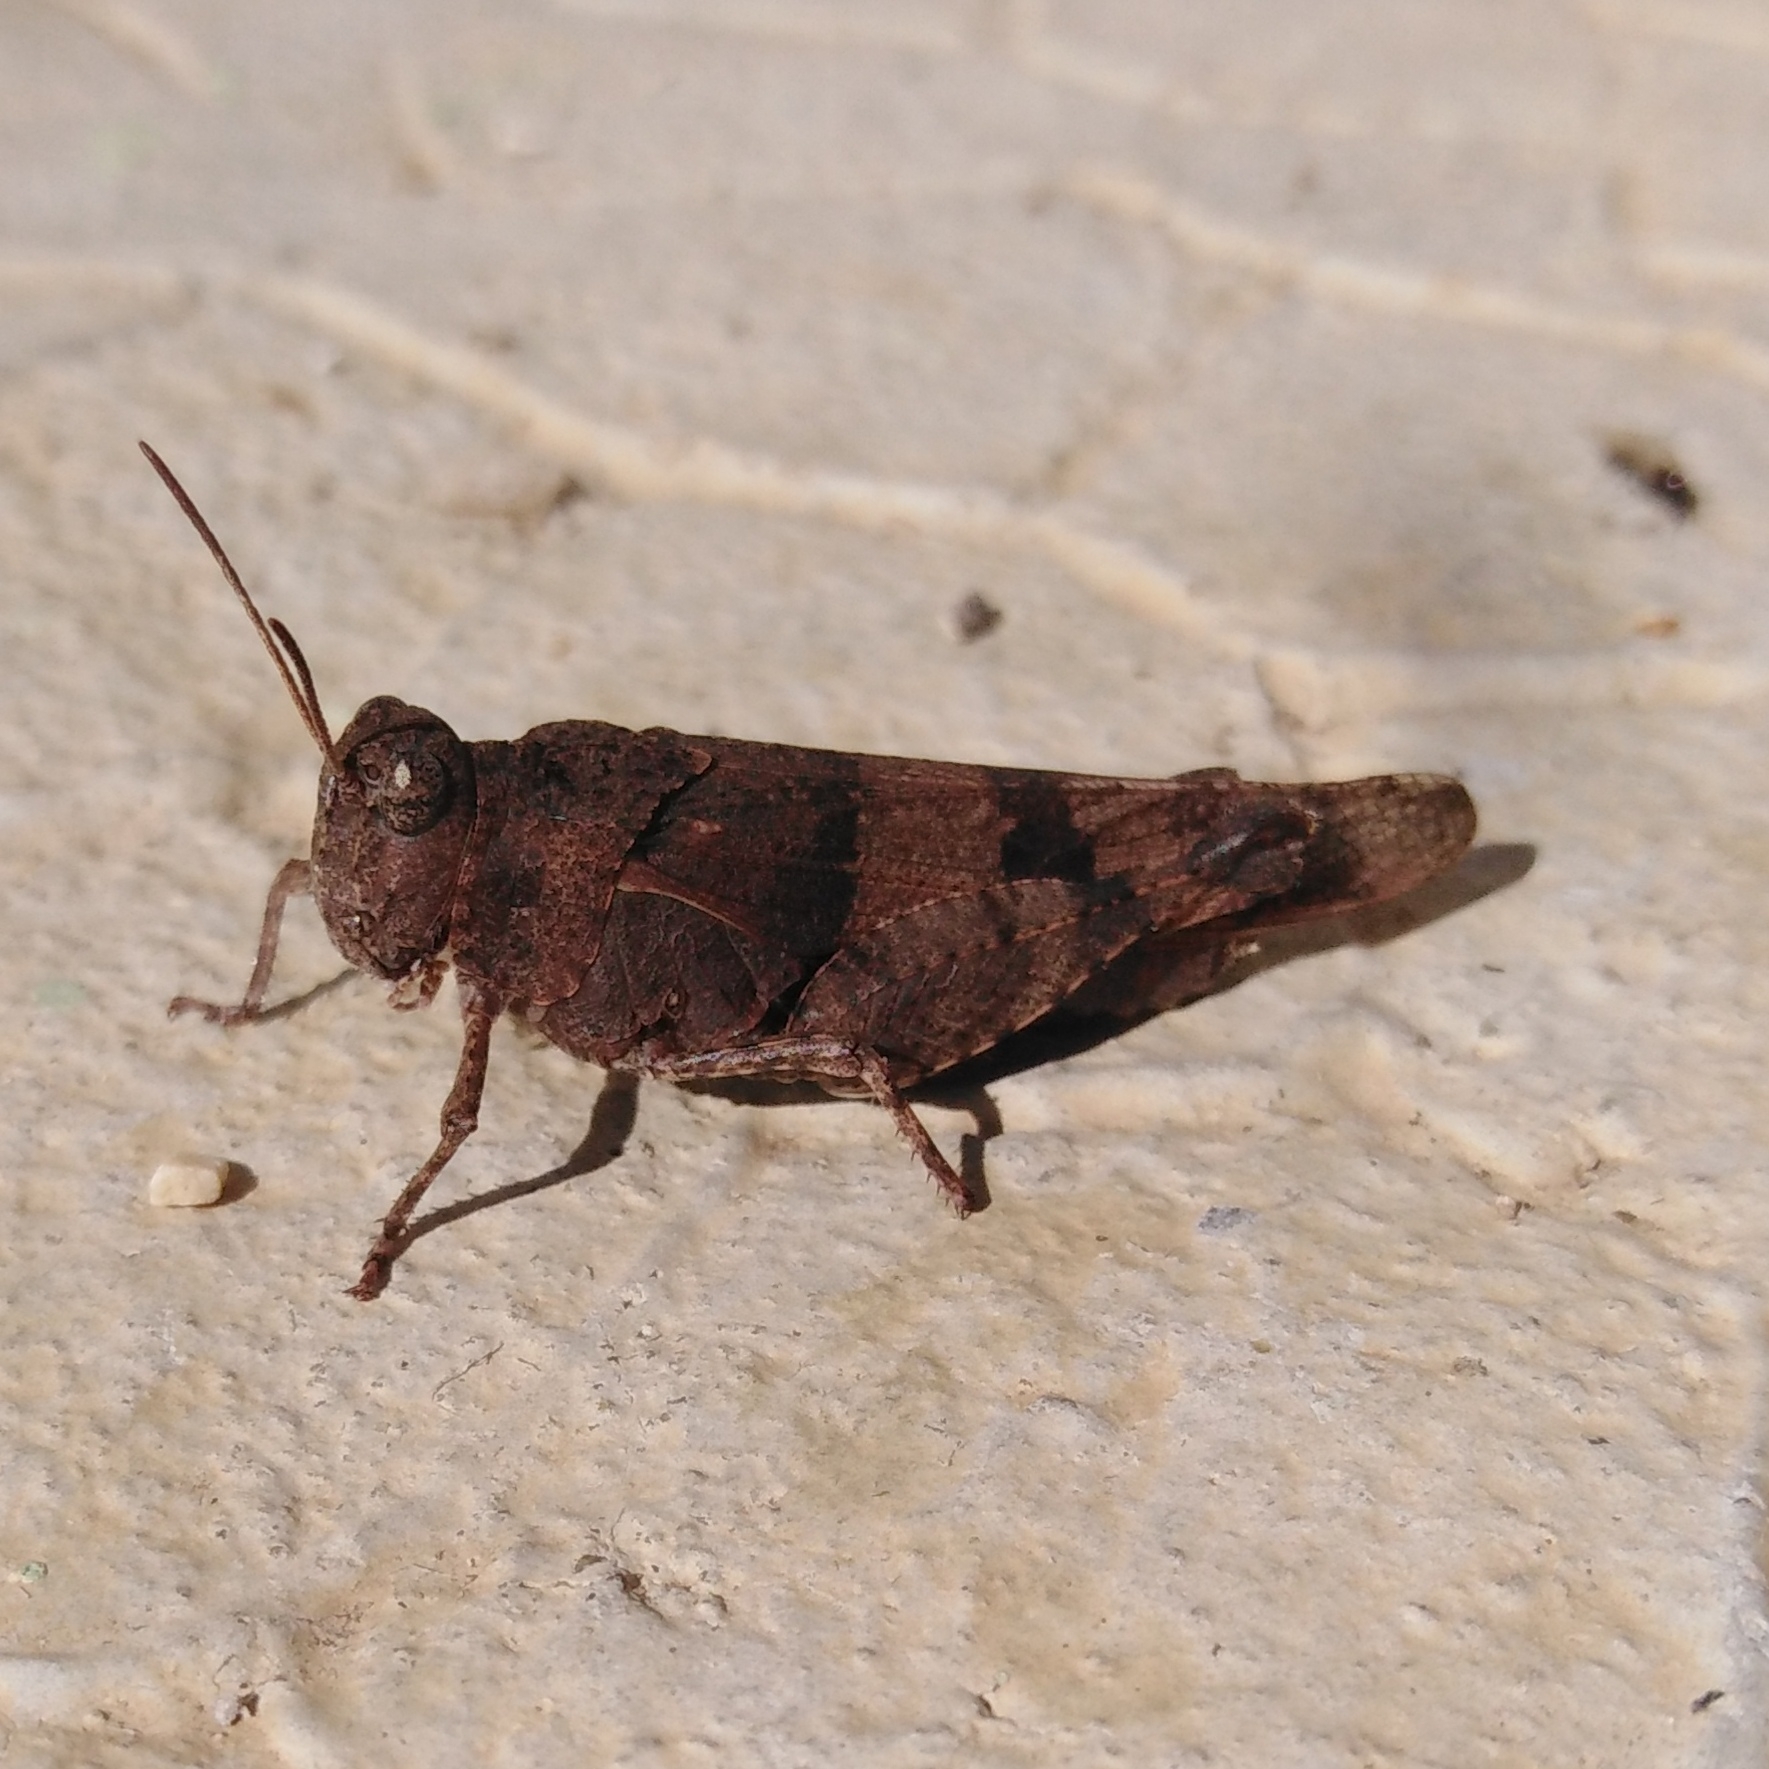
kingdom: Animalia
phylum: Arthropoda
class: Insecta
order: Orthoptera
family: Acrididae
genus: Oedipoda
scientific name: Oedipoda caerulescens
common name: Blue-winged grasshopper
